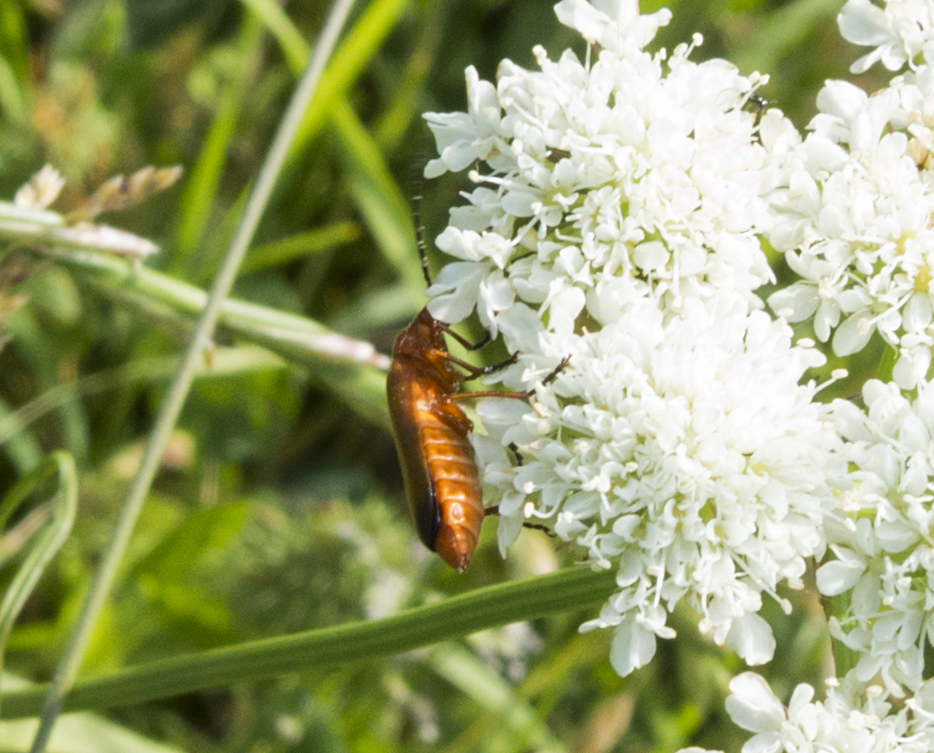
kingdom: Animalia
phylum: Arthropoda
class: Insecta
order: Coleoptera
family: Cantharidae
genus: Rhagonycha
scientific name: Rhagonycha fulva
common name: Common red soldier beetle
